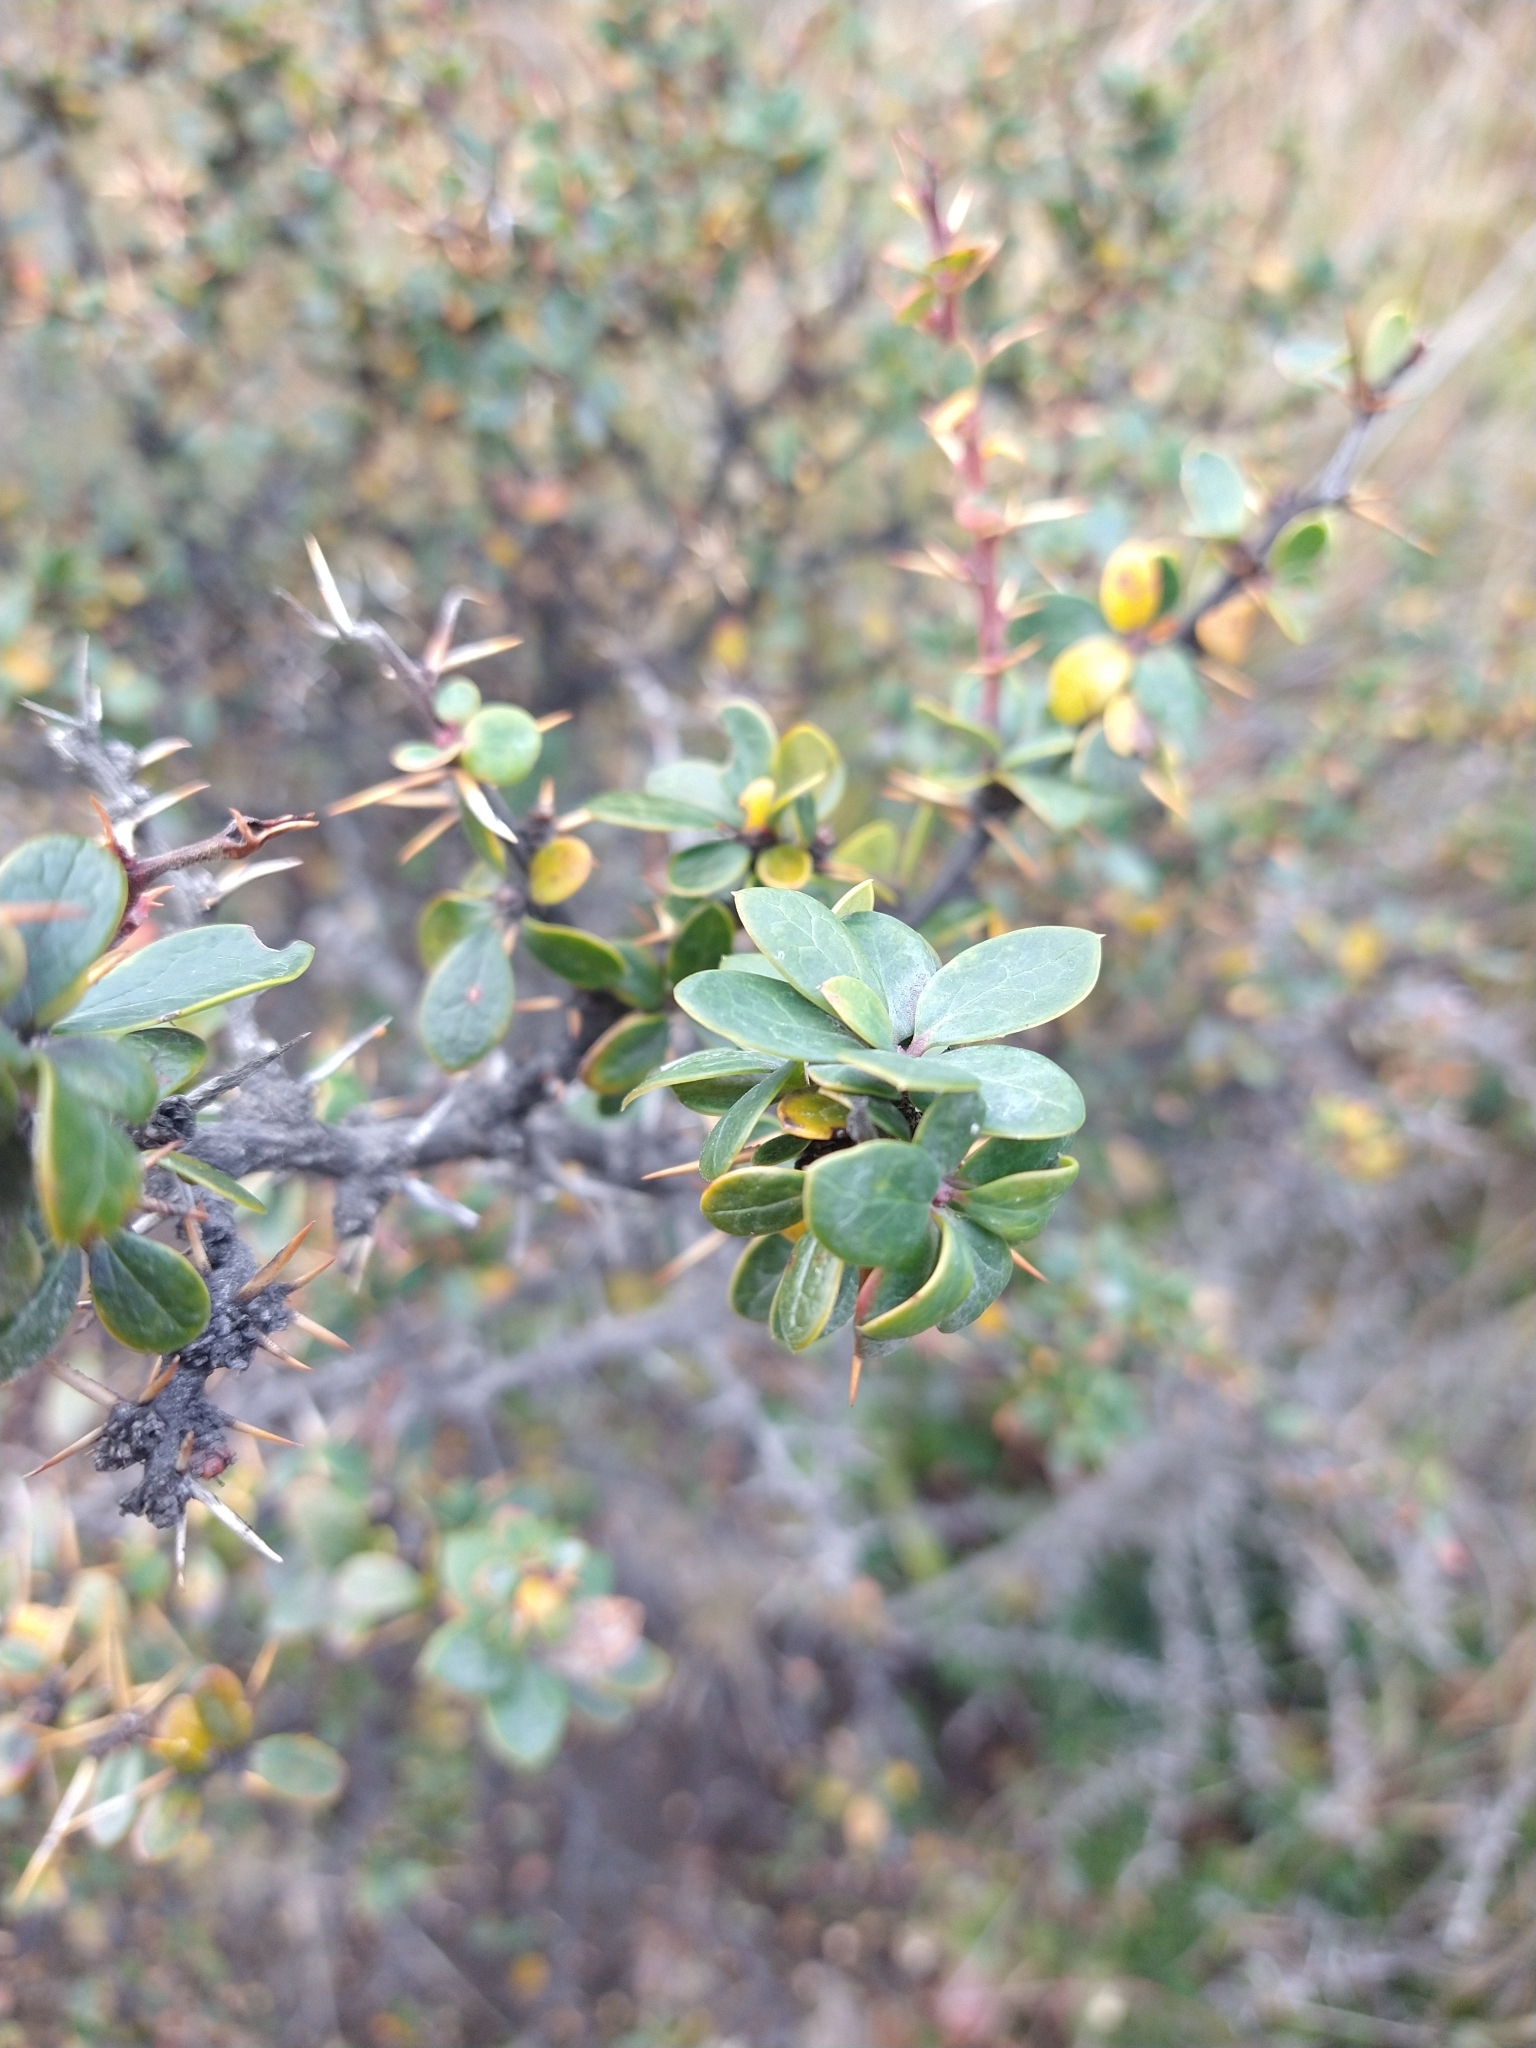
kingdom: Plantae
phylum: Tracheophyta
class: Magnoliopsida
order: Ranunculales
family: Berberidaceae
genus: Berberis
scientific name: Berberis microphylla
